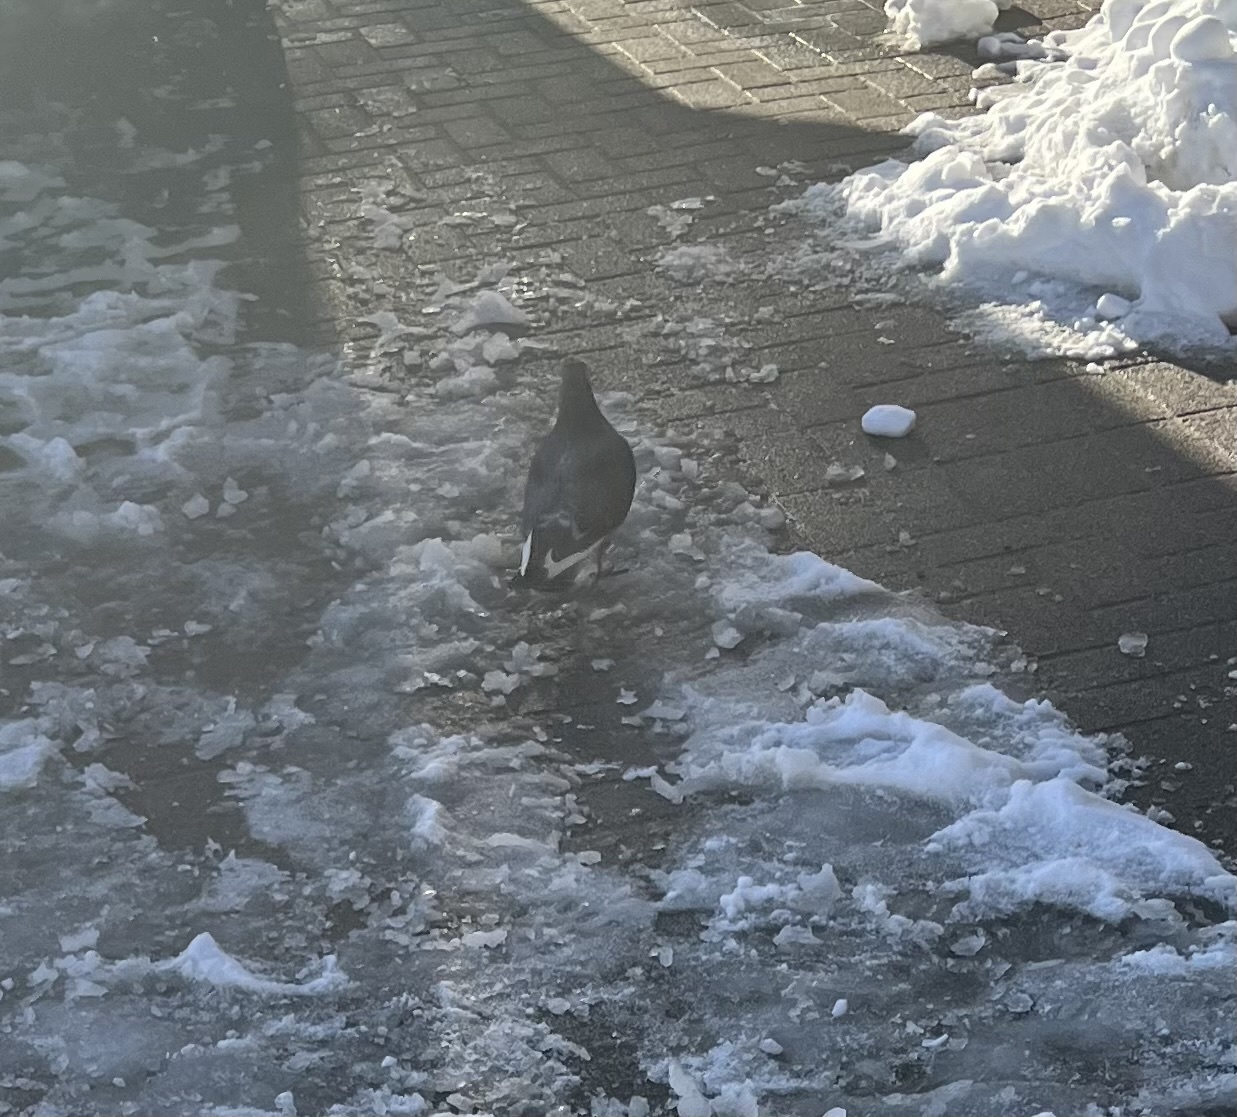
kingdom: Animalia
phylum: Chordata
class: Aves
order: Columbiformes
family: Columbidae
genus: Columba
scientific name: Columba livia
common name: Rock pigeon
